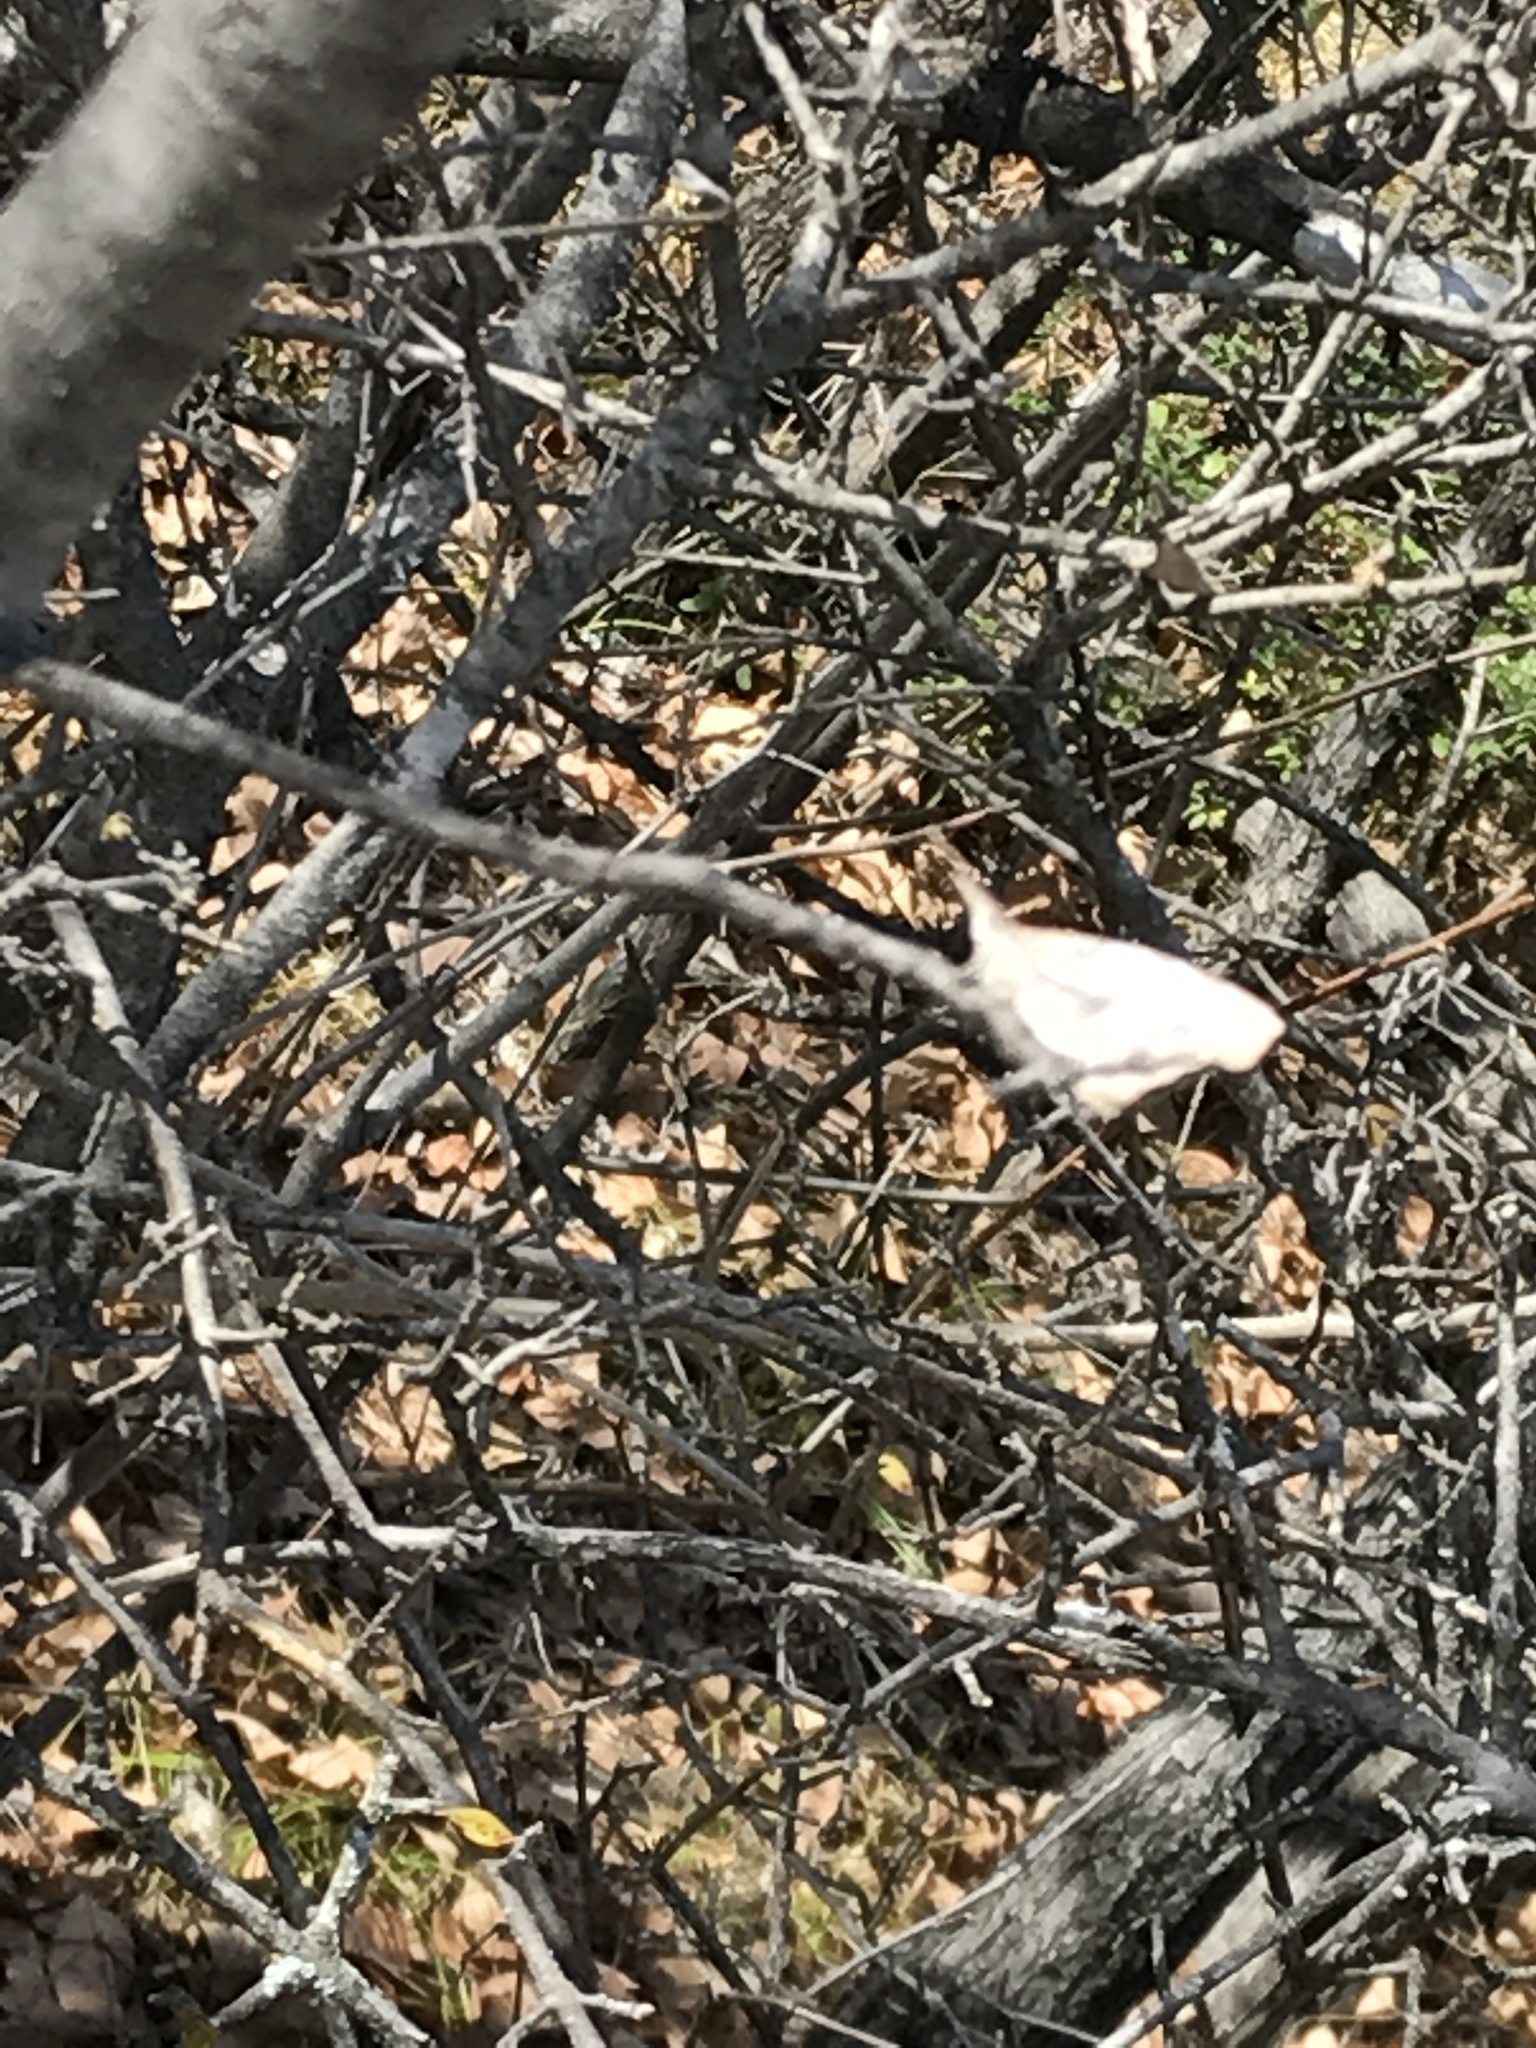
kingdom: Animalia
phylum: Arthropoda
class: Insecta
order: Lepidoptera
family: Nymphalidae
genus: Libytheana
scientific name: Libytheana carinenta
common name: American snout
